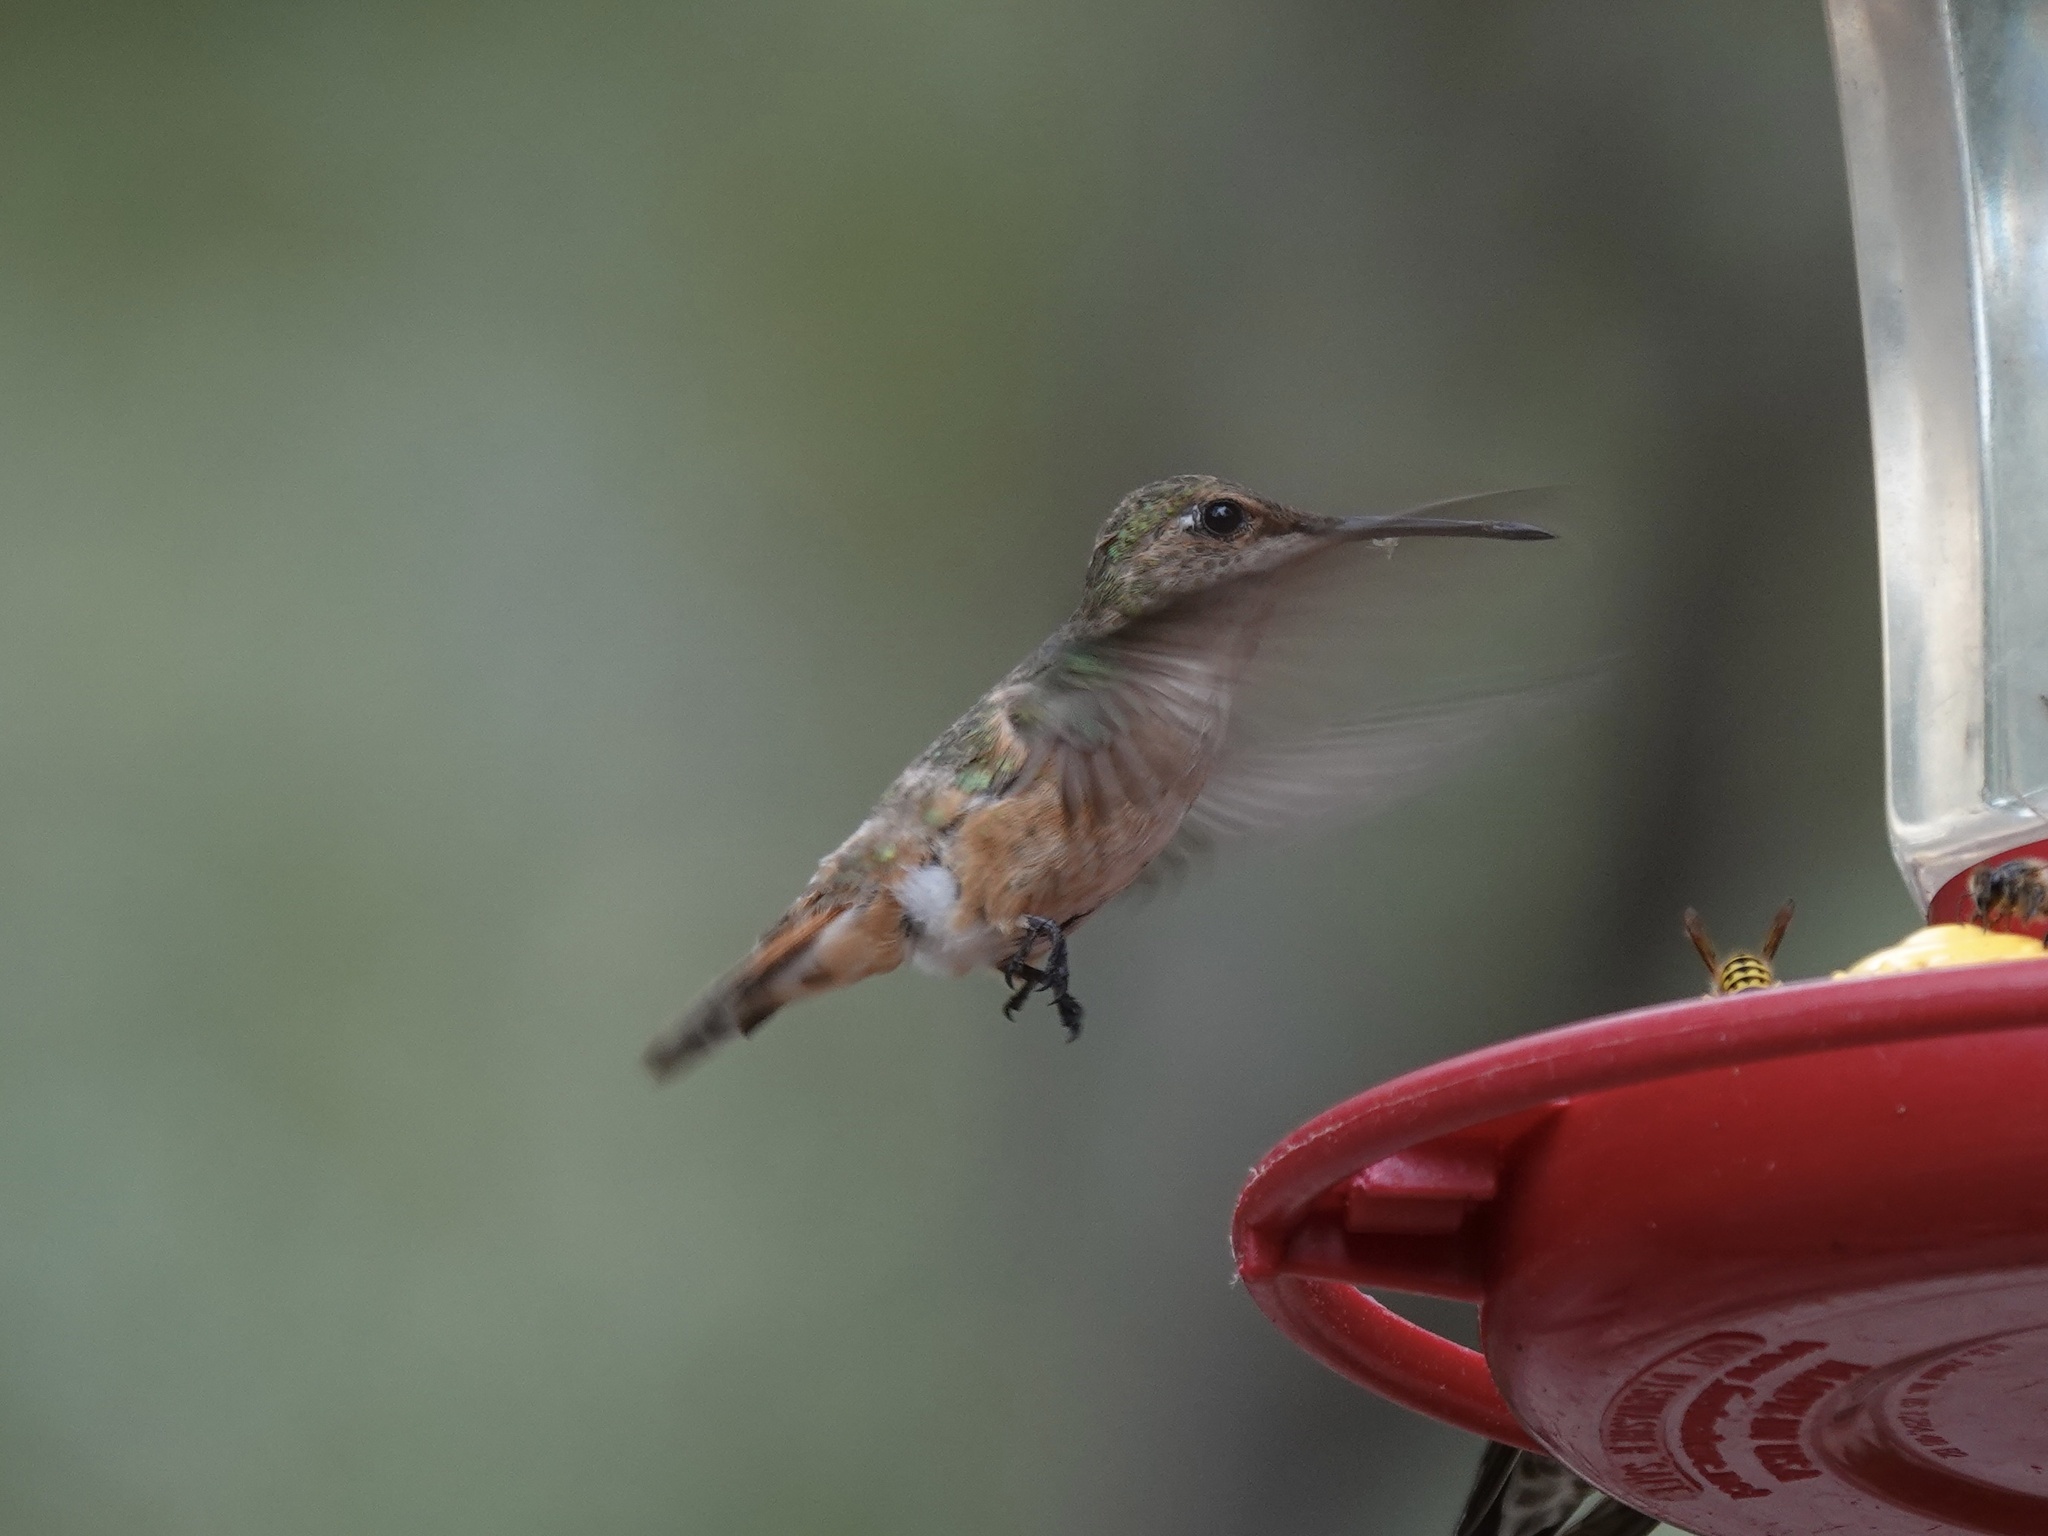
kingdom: Animalia
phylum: Chordata
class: Aves
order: Apodiformes
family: Trochilidae
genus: Selasphorus
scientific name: Selasphorus rufus
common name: Rufous hummingbird
